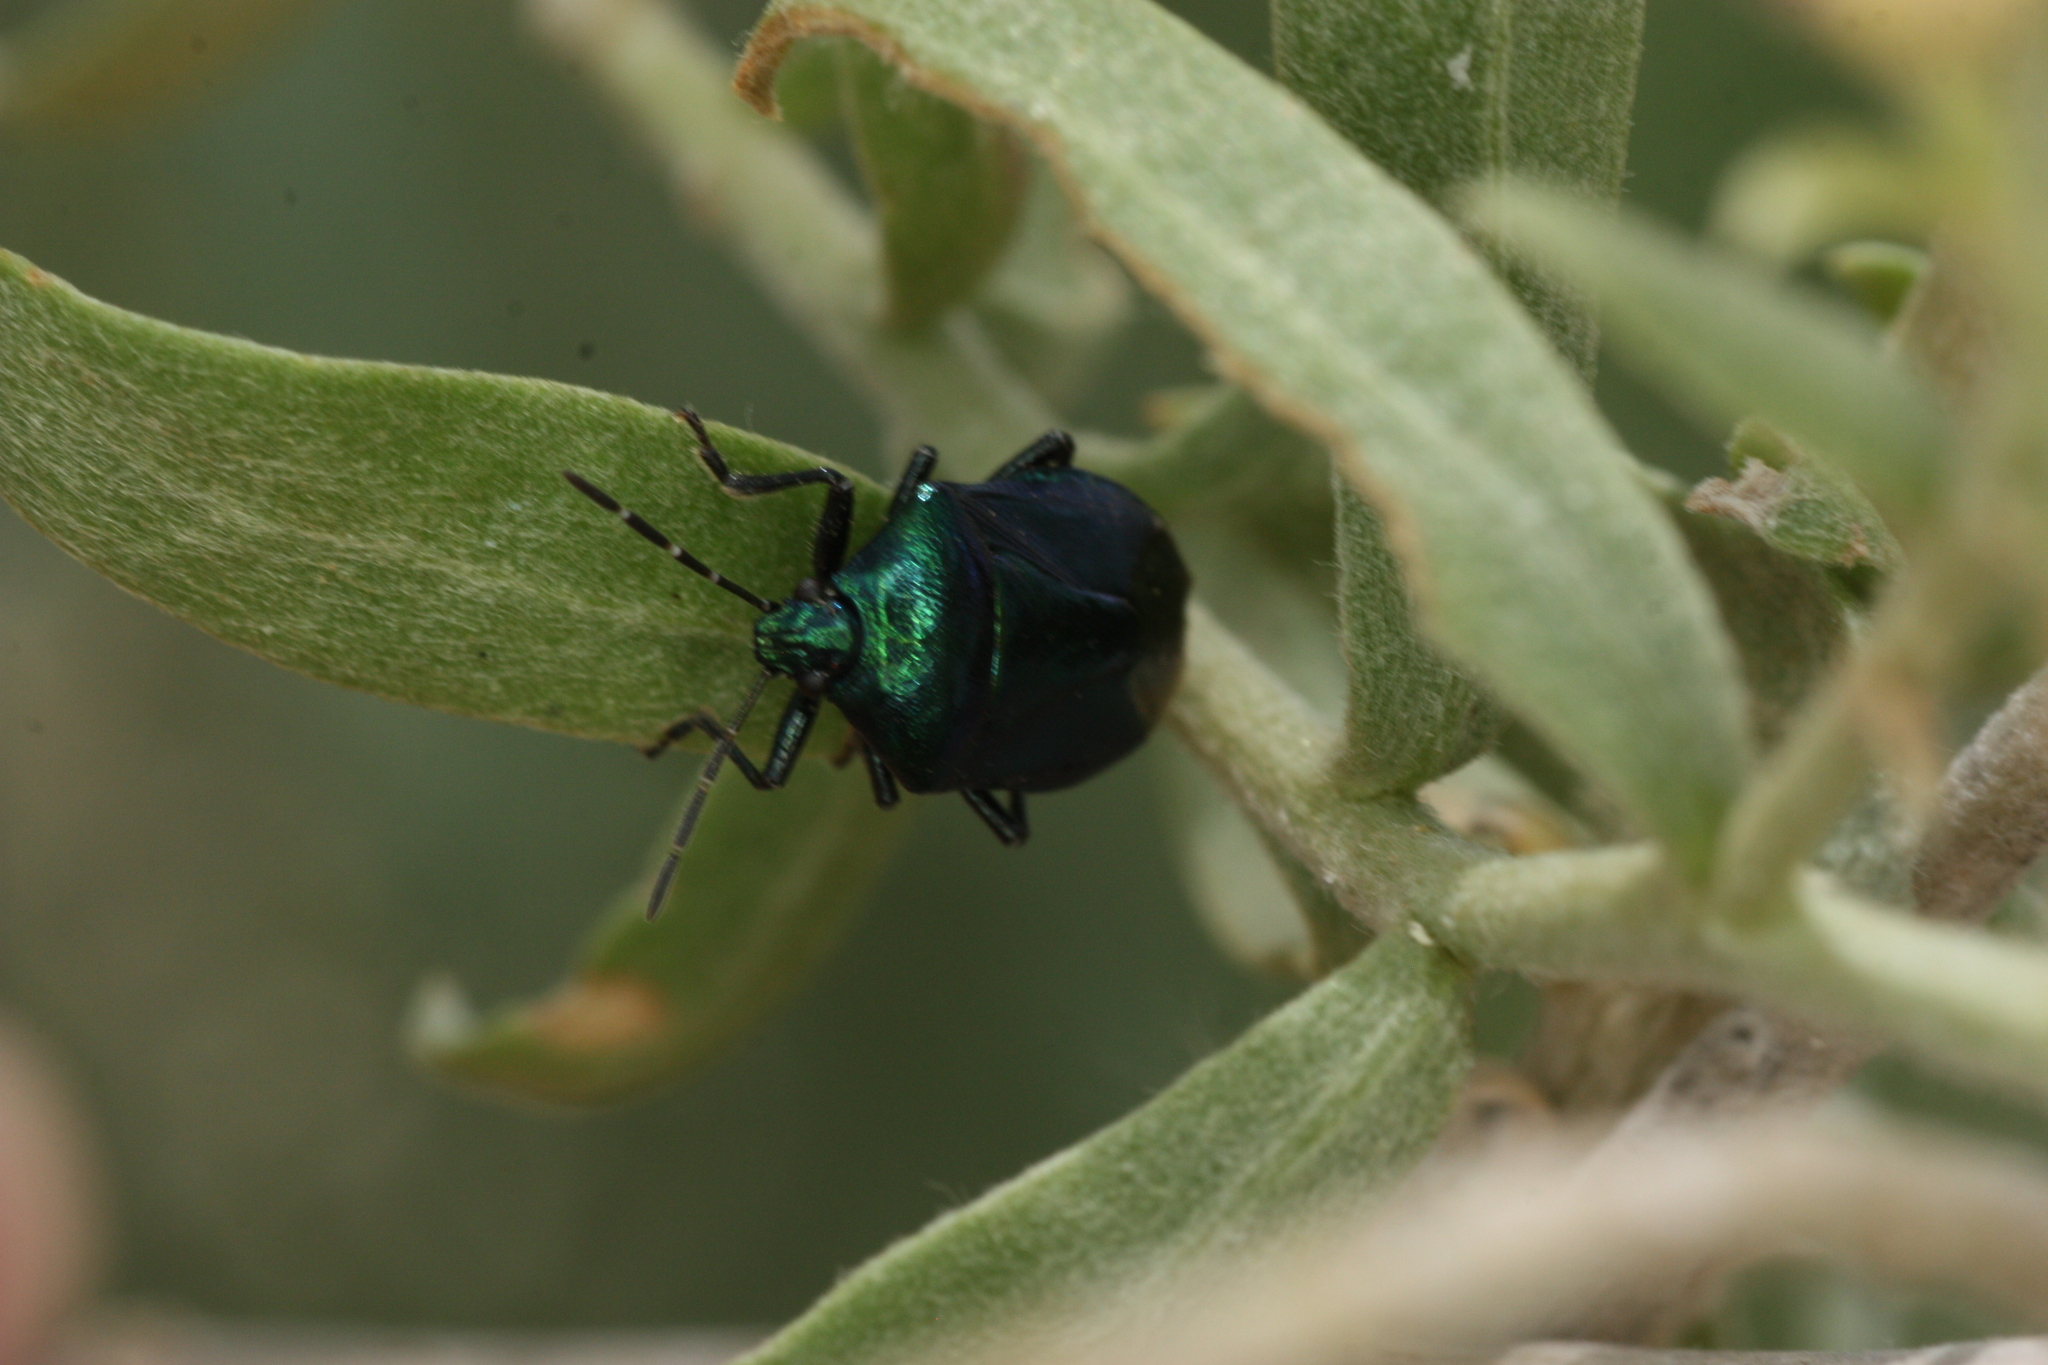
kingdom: Animalia
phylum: Arthropoda
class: Insecta
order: Hemiptera
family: Pentatomidae
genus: Zicrona
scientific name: Zicrona
